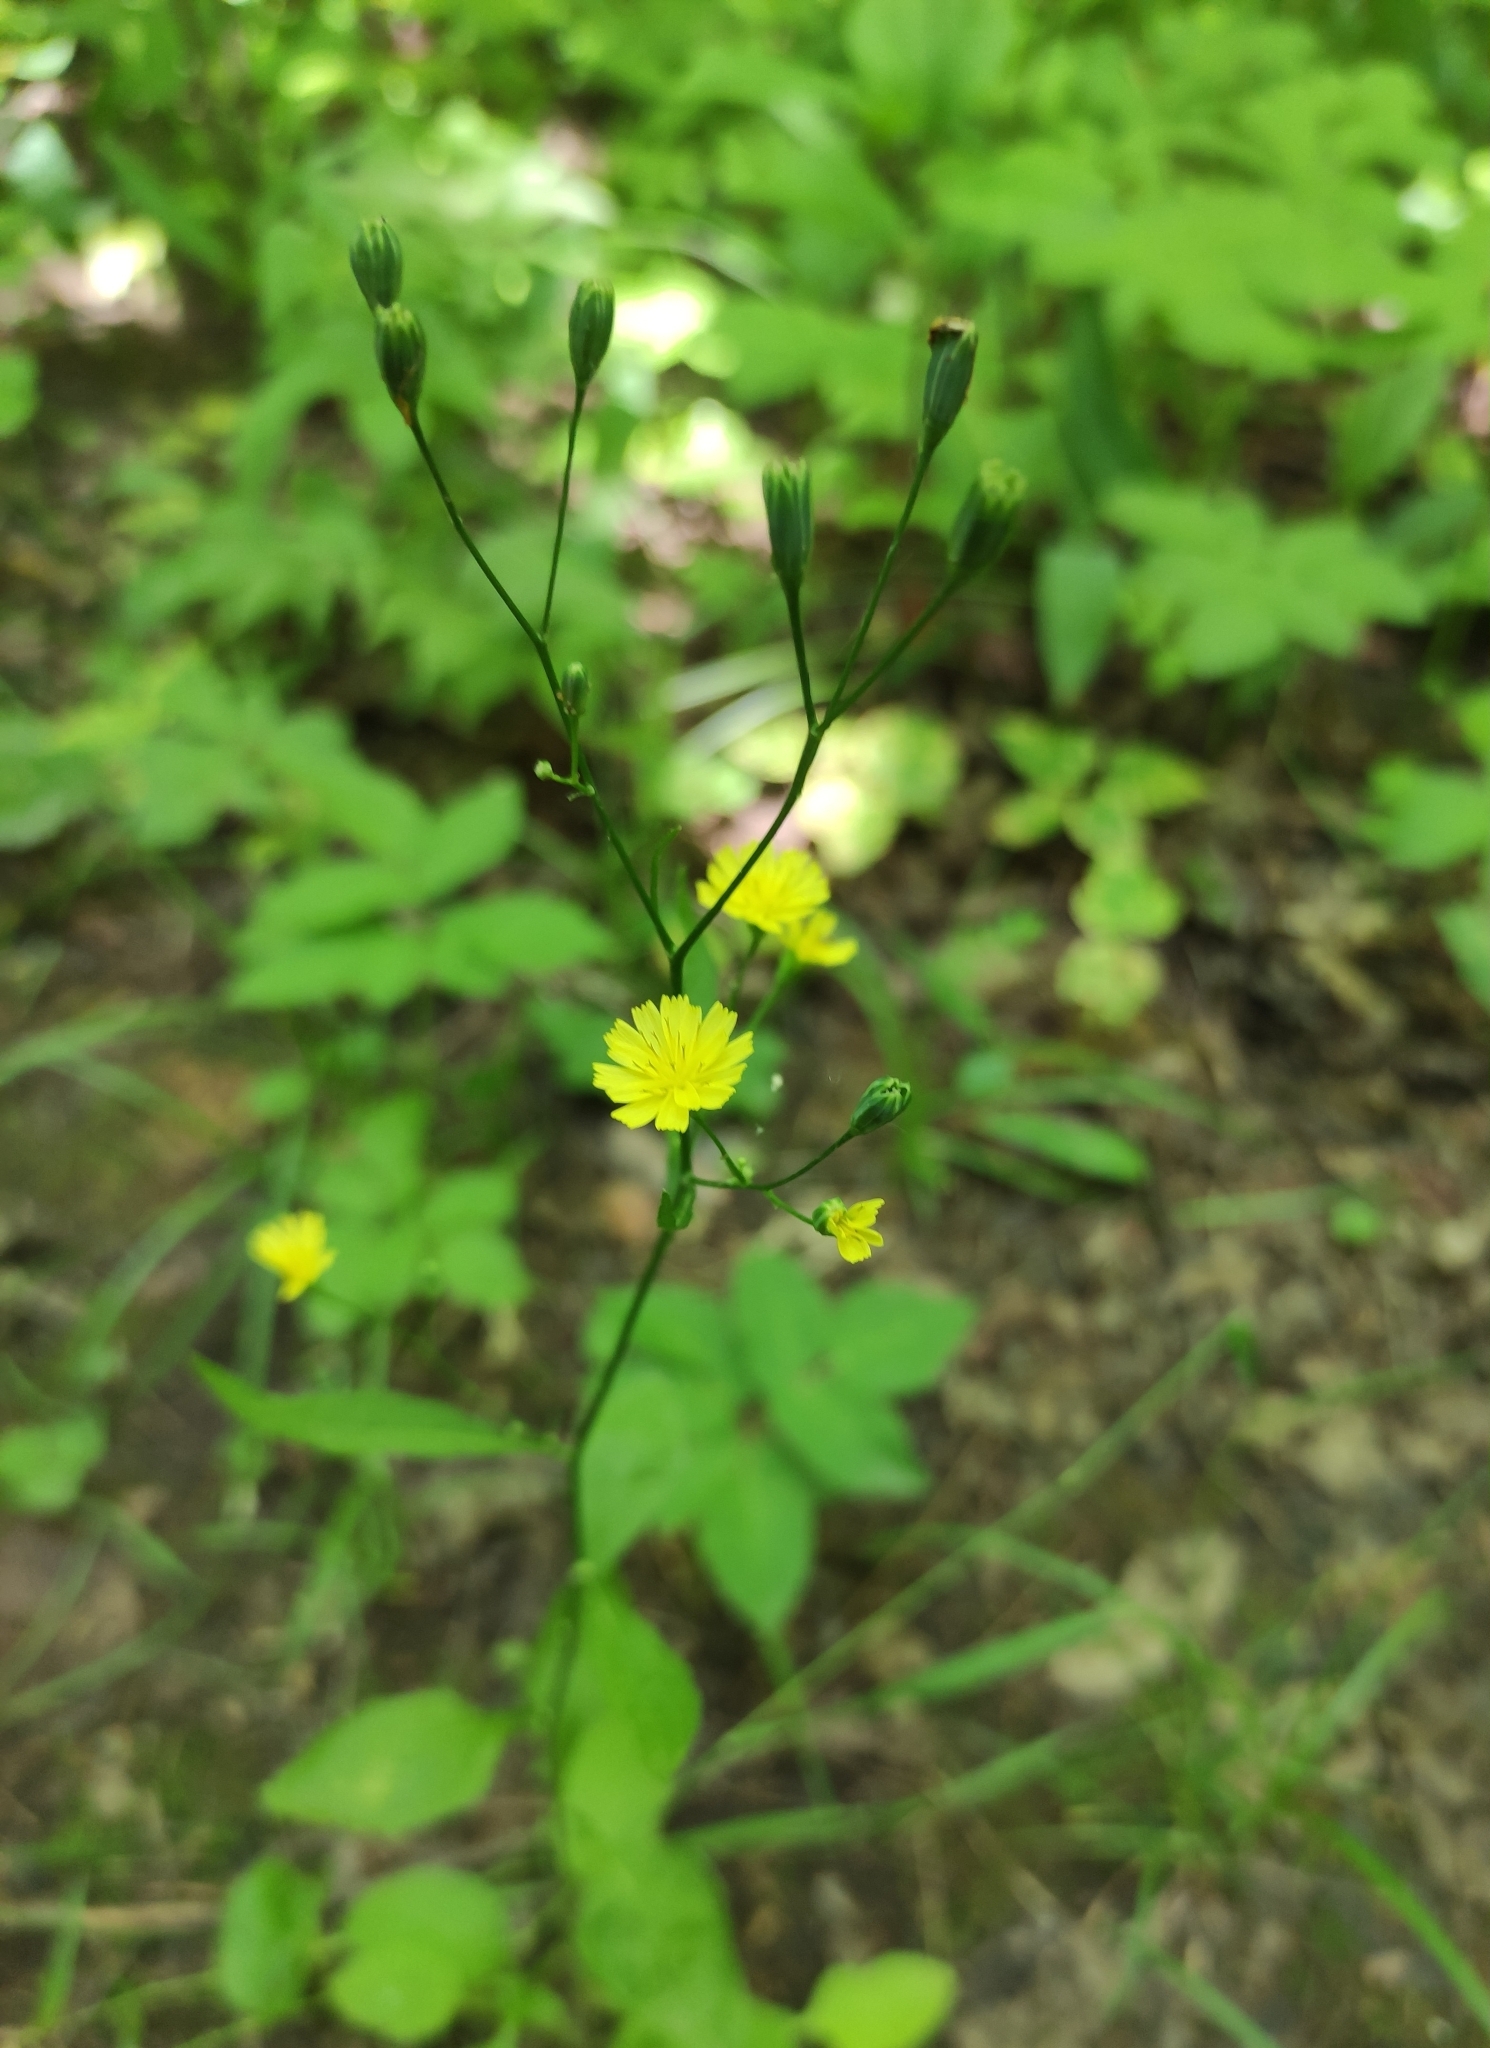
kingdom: Plantae
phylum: Tracheophyta
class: Magnoliopsida
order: Asterales
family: Asteraceae
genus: Lapsana
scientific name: Lapsana communis
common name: Nipplewort
